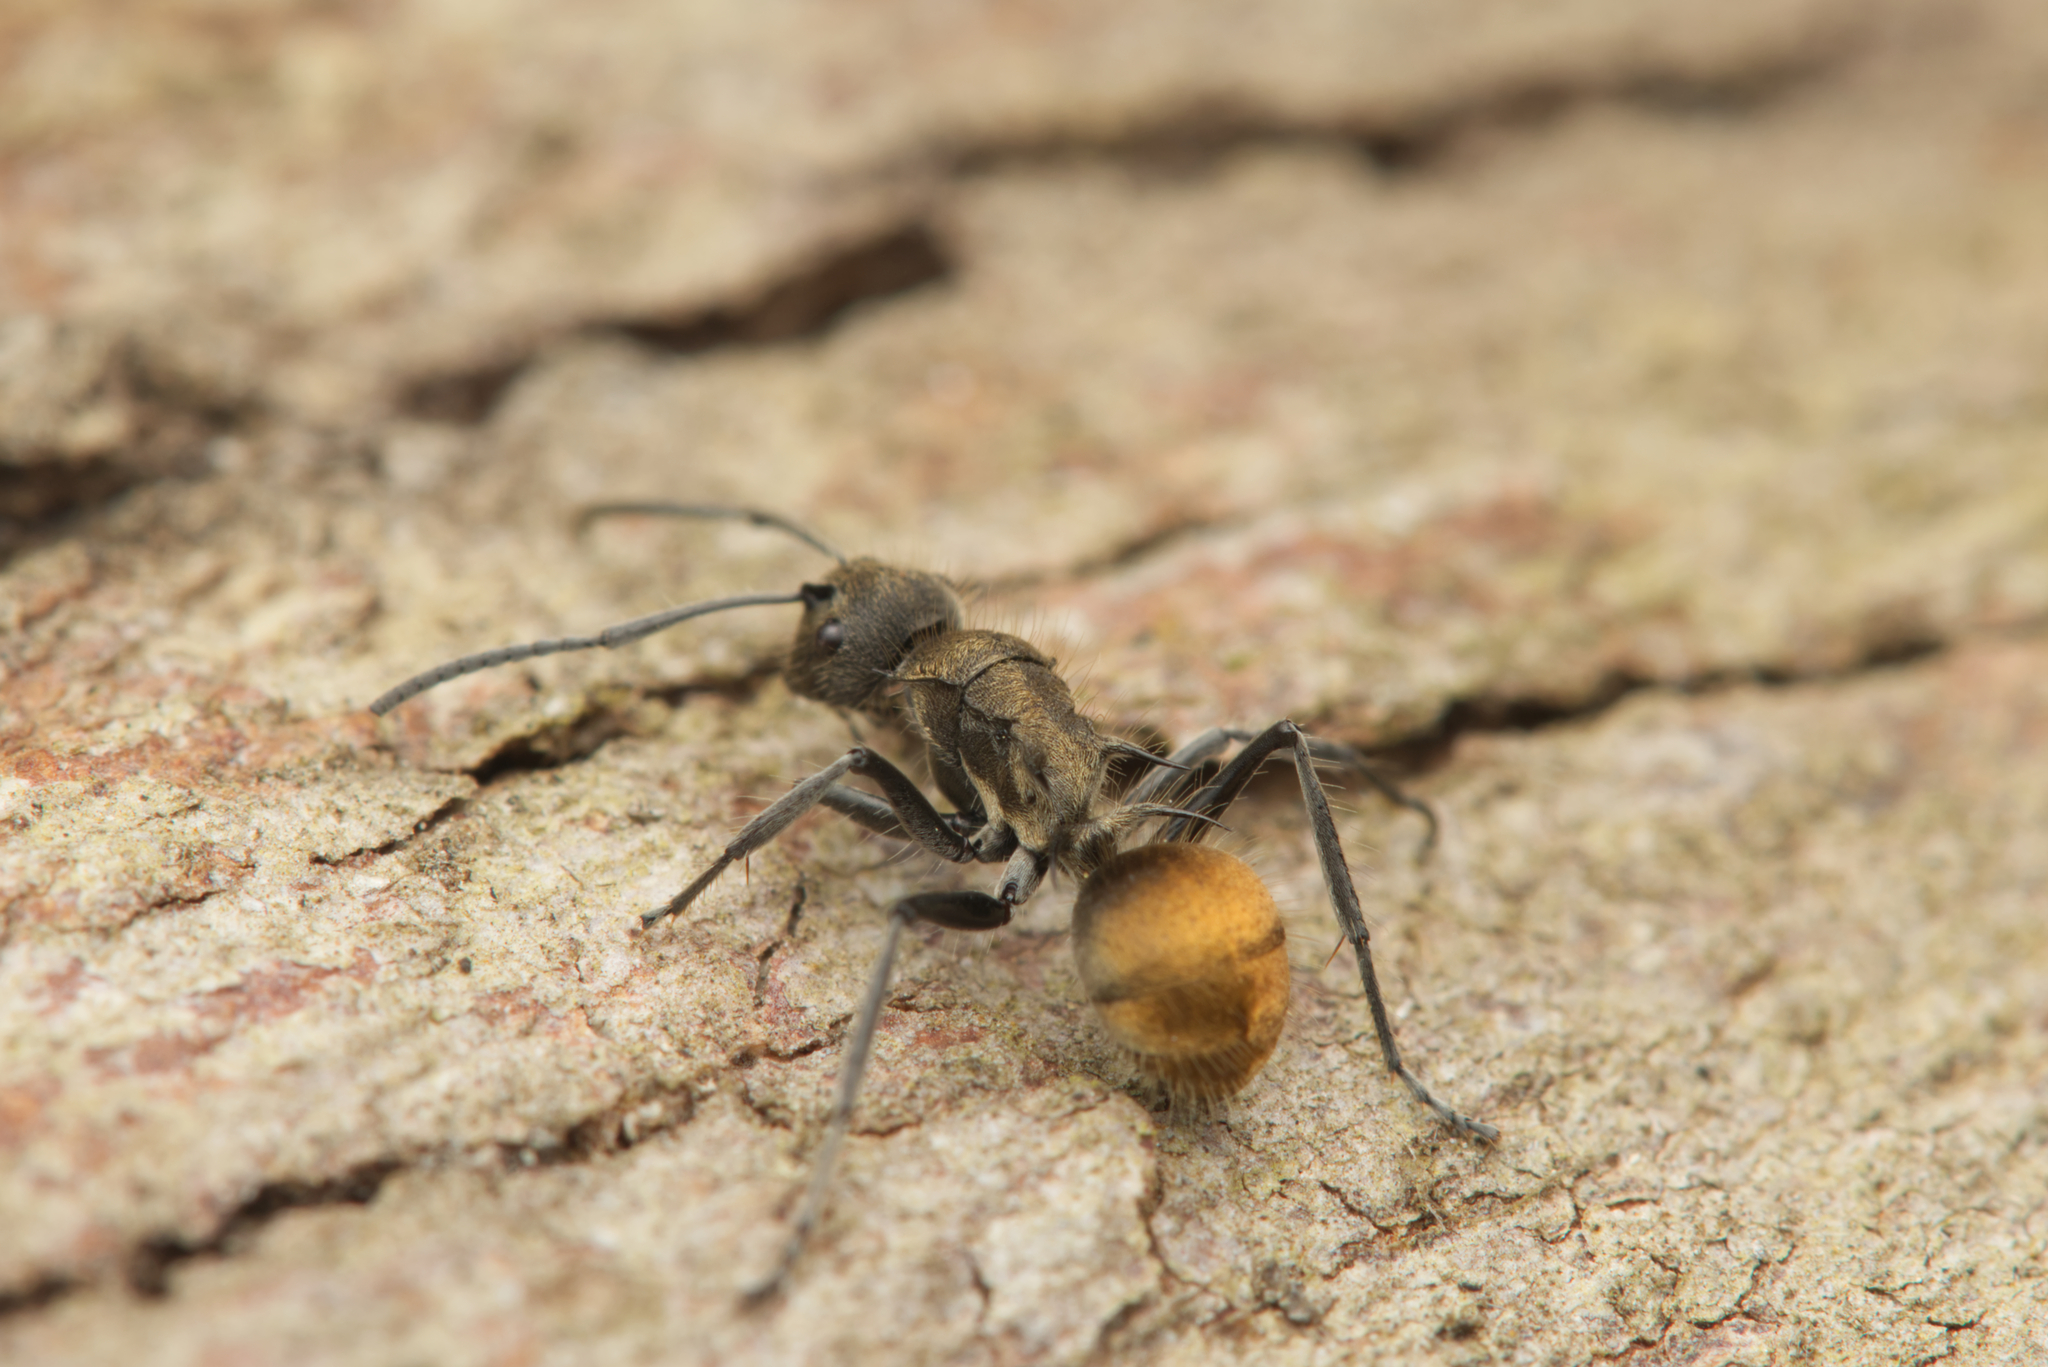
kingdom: Animalia
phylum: Arthropoda
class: Insecta
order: Hymenoptera
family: Formicidae
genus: Polyrhachis
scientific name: Polyrhachis aurea
